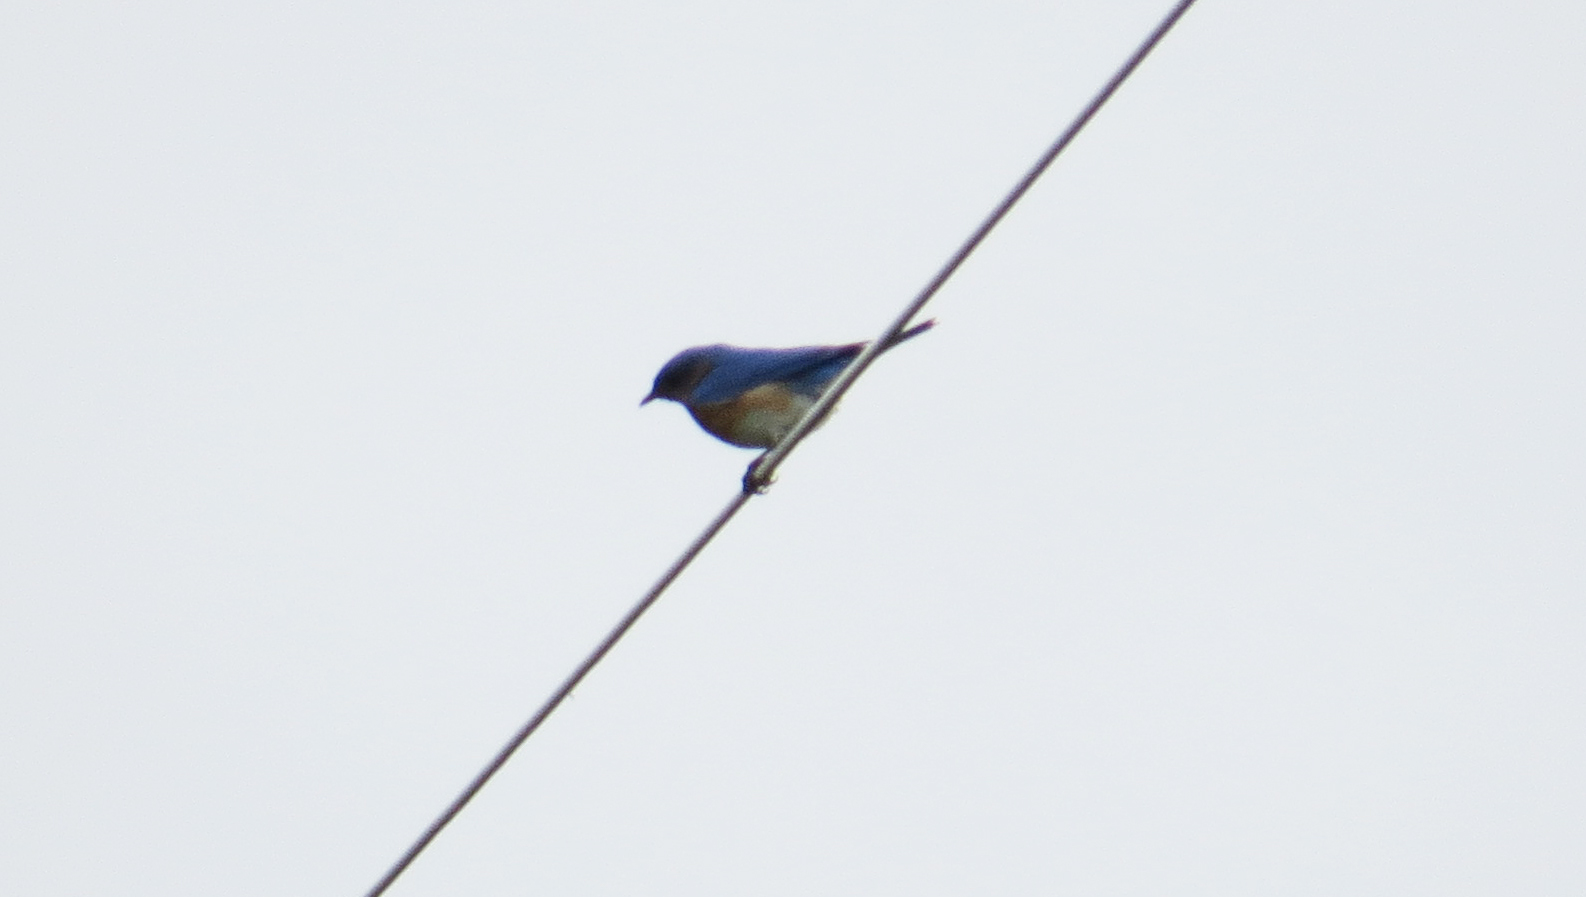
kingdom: Animalia
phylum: Chordata
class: Aves
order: Passeriformes
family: Turdidae
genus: Sialia
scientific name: Sialia sialis
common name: Eastern bluebird
